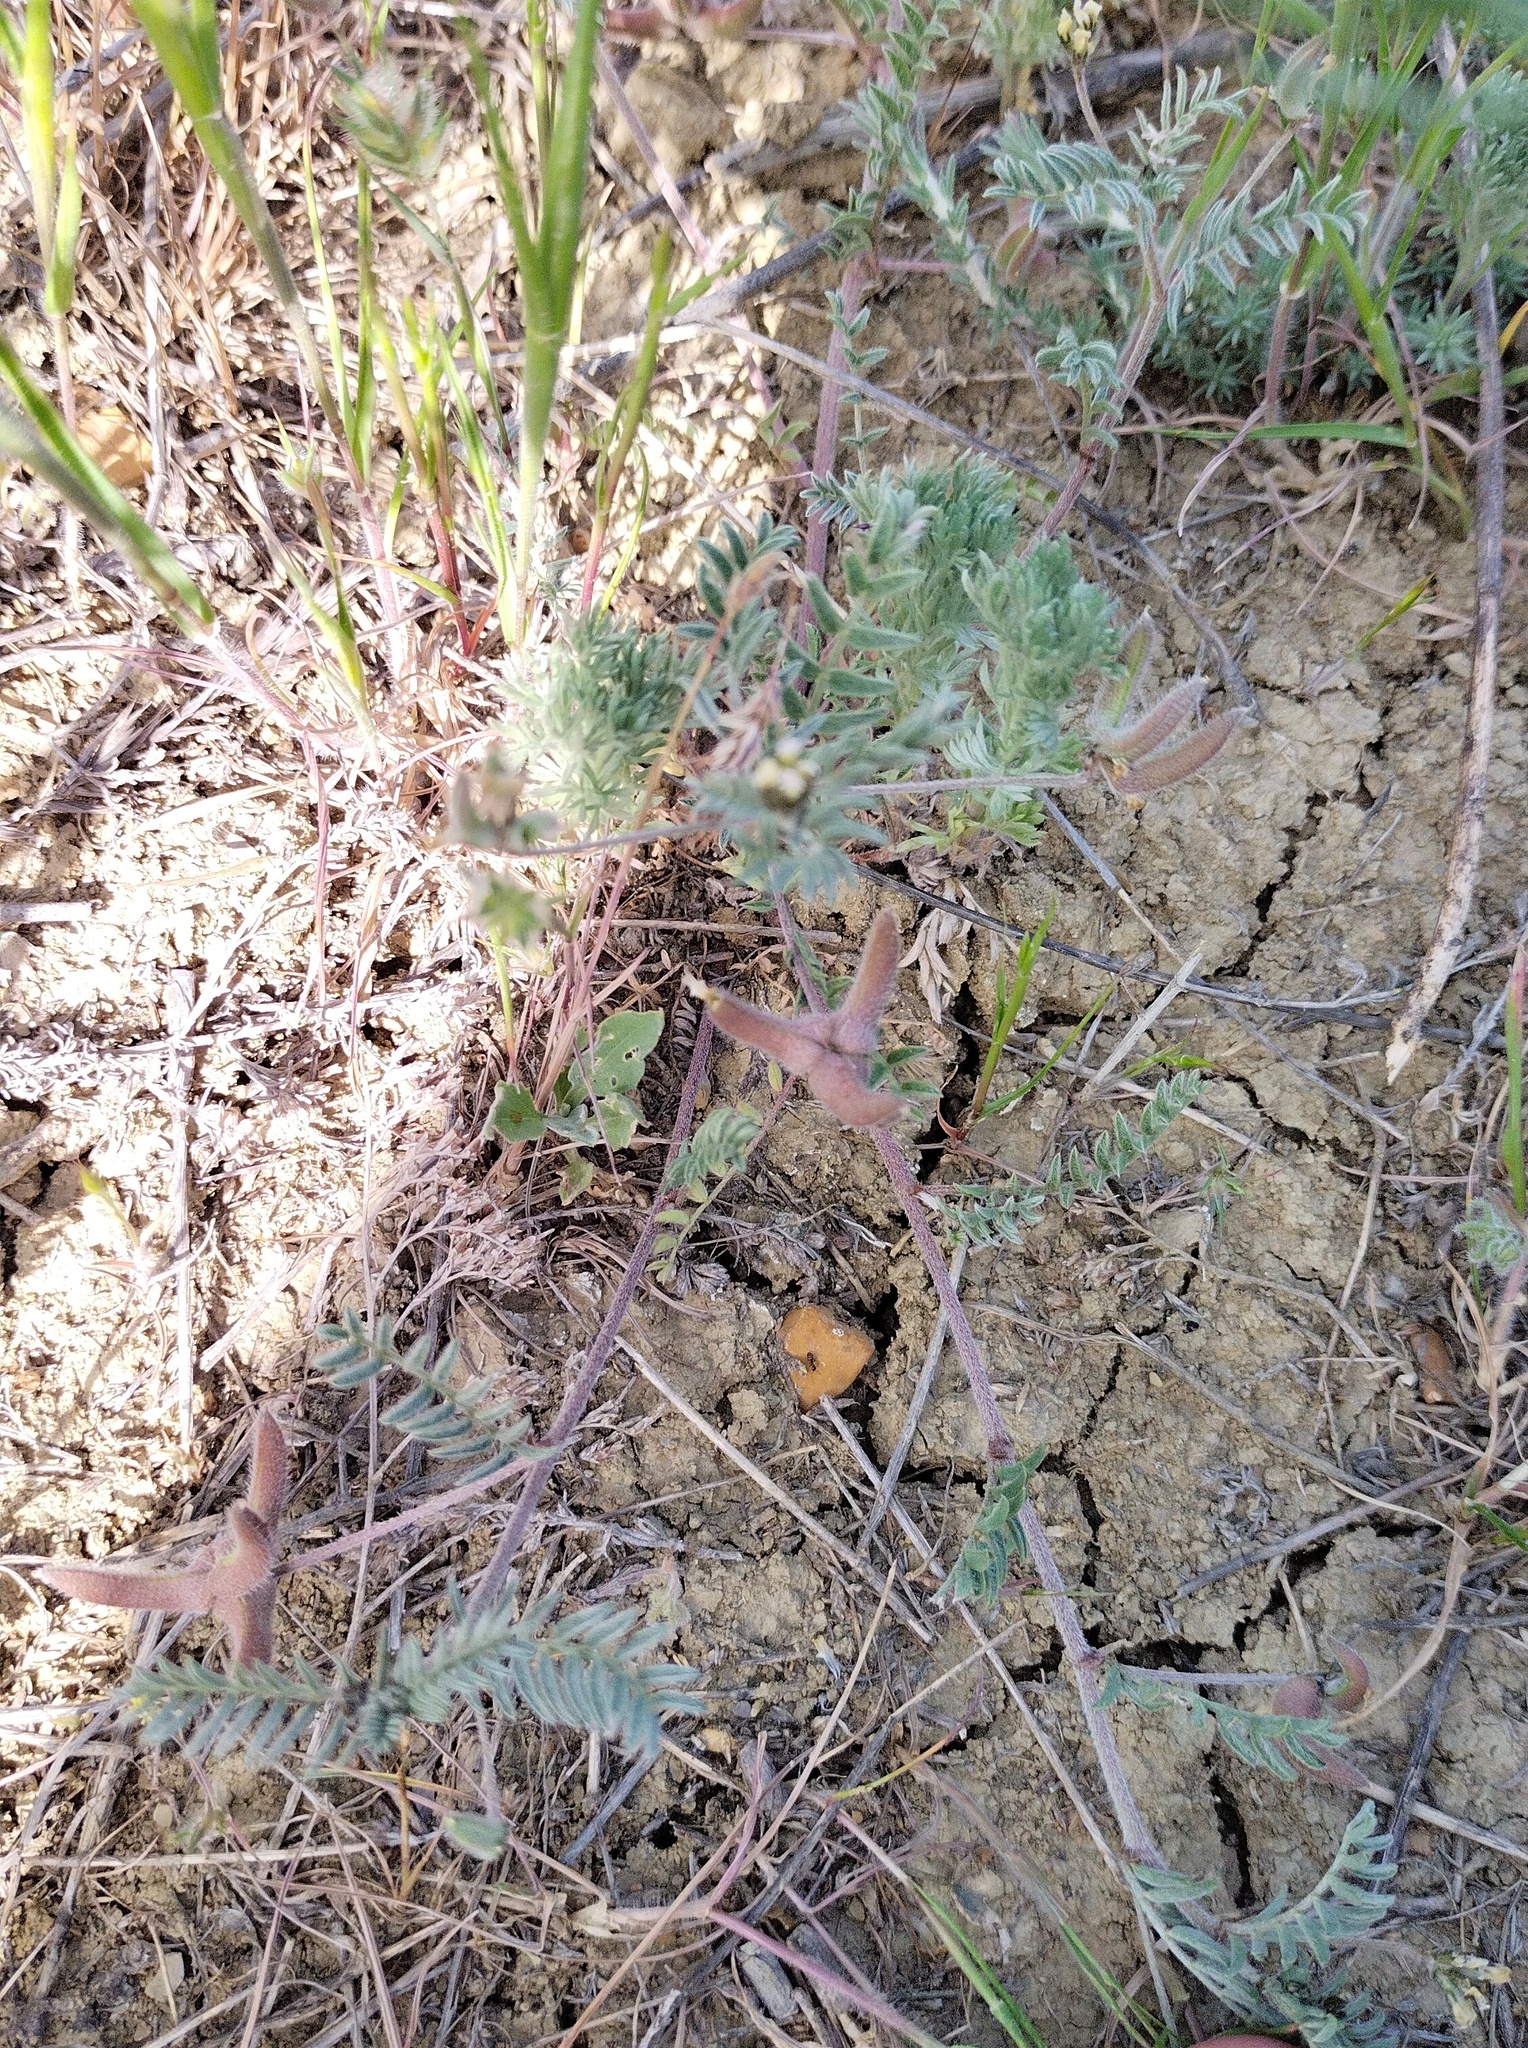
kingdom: Plantae
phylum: Tracheophyta
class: Magnoliopsida
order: Fabales
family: Fabaceae
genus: Astragalus
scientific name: Astragalus asterias
